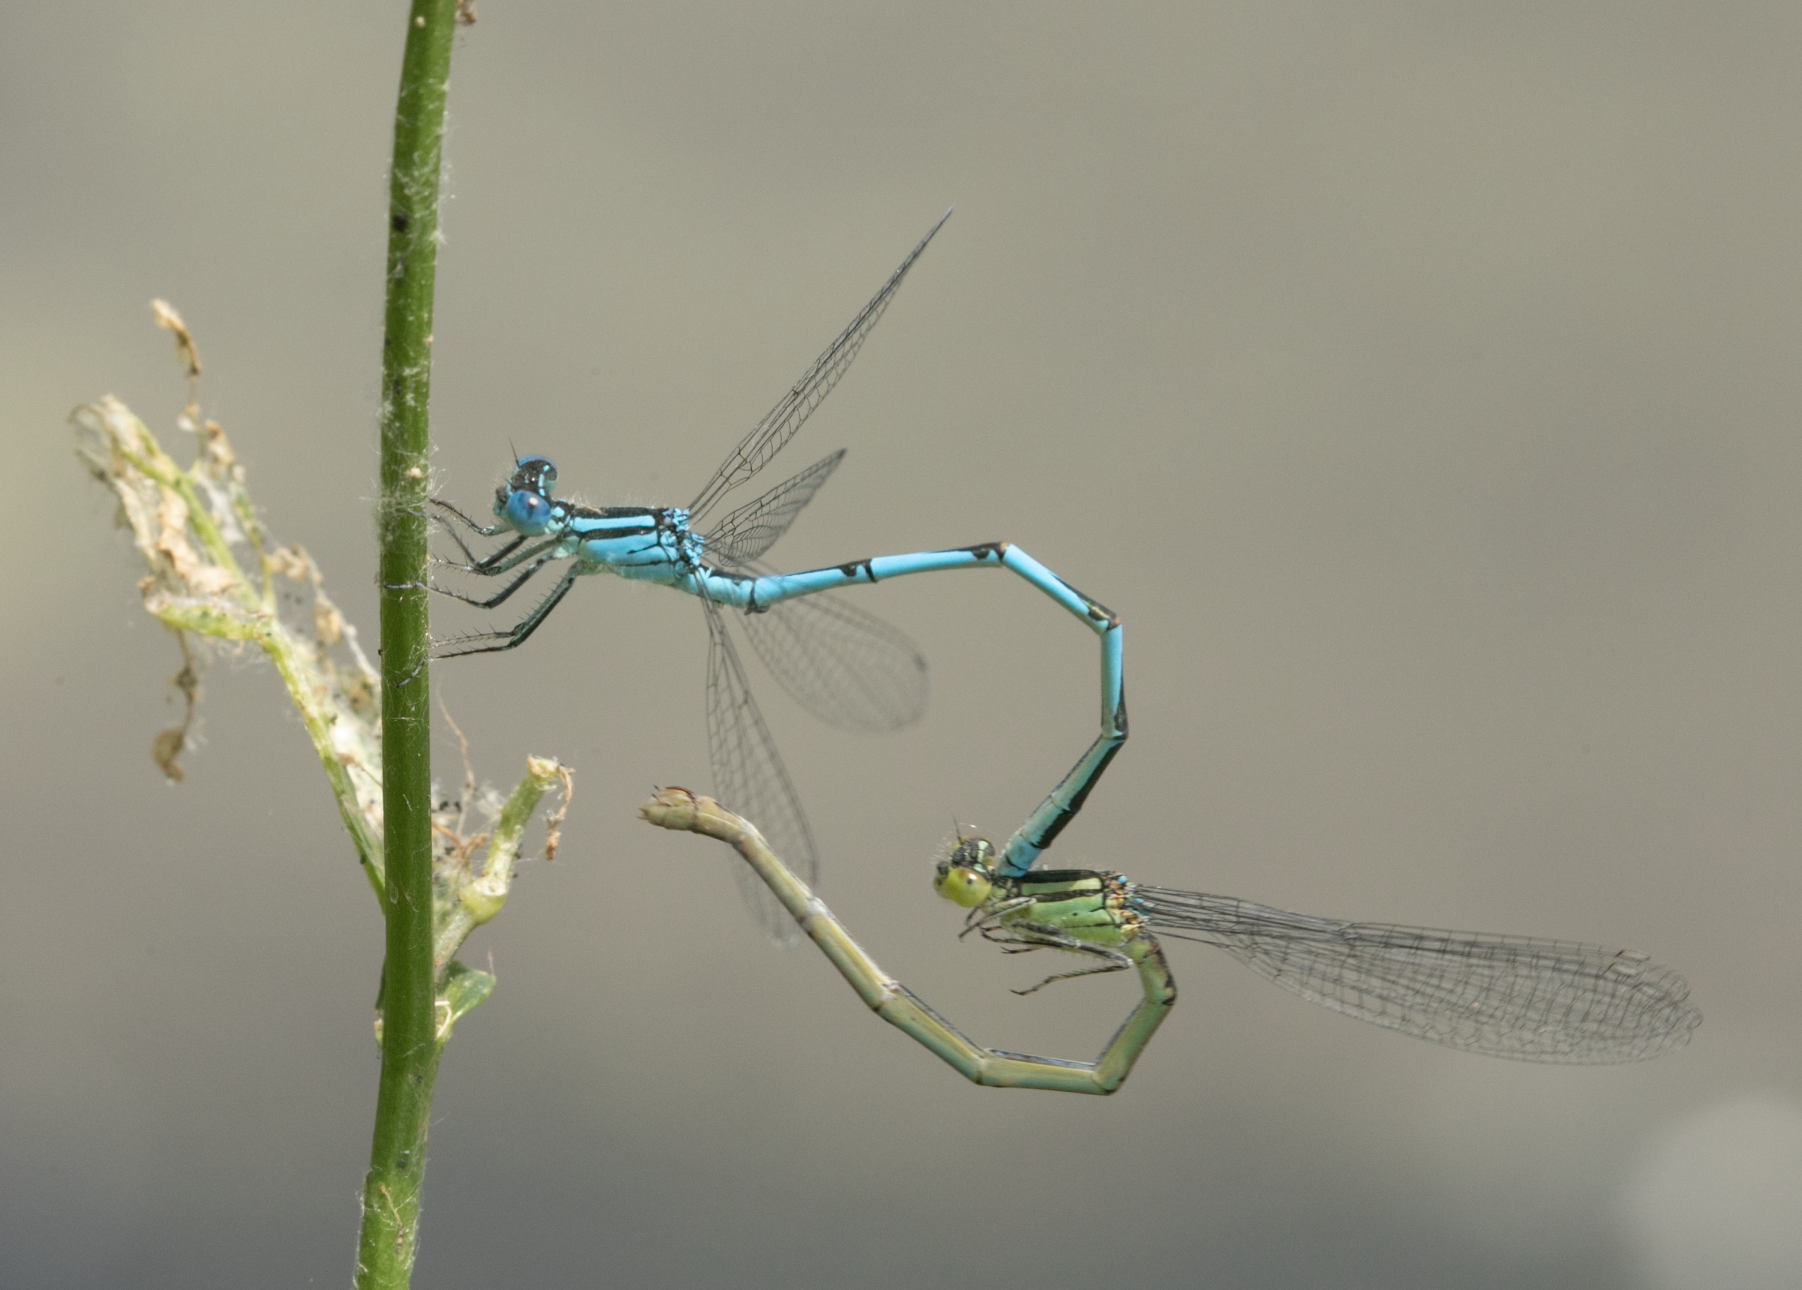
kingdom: Animalia
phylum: Arthropoda
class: Insecta
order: Odonata
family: Coenagrionidae
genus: Erythromma
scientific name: Erythromma lindenii
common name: Blue-eye
